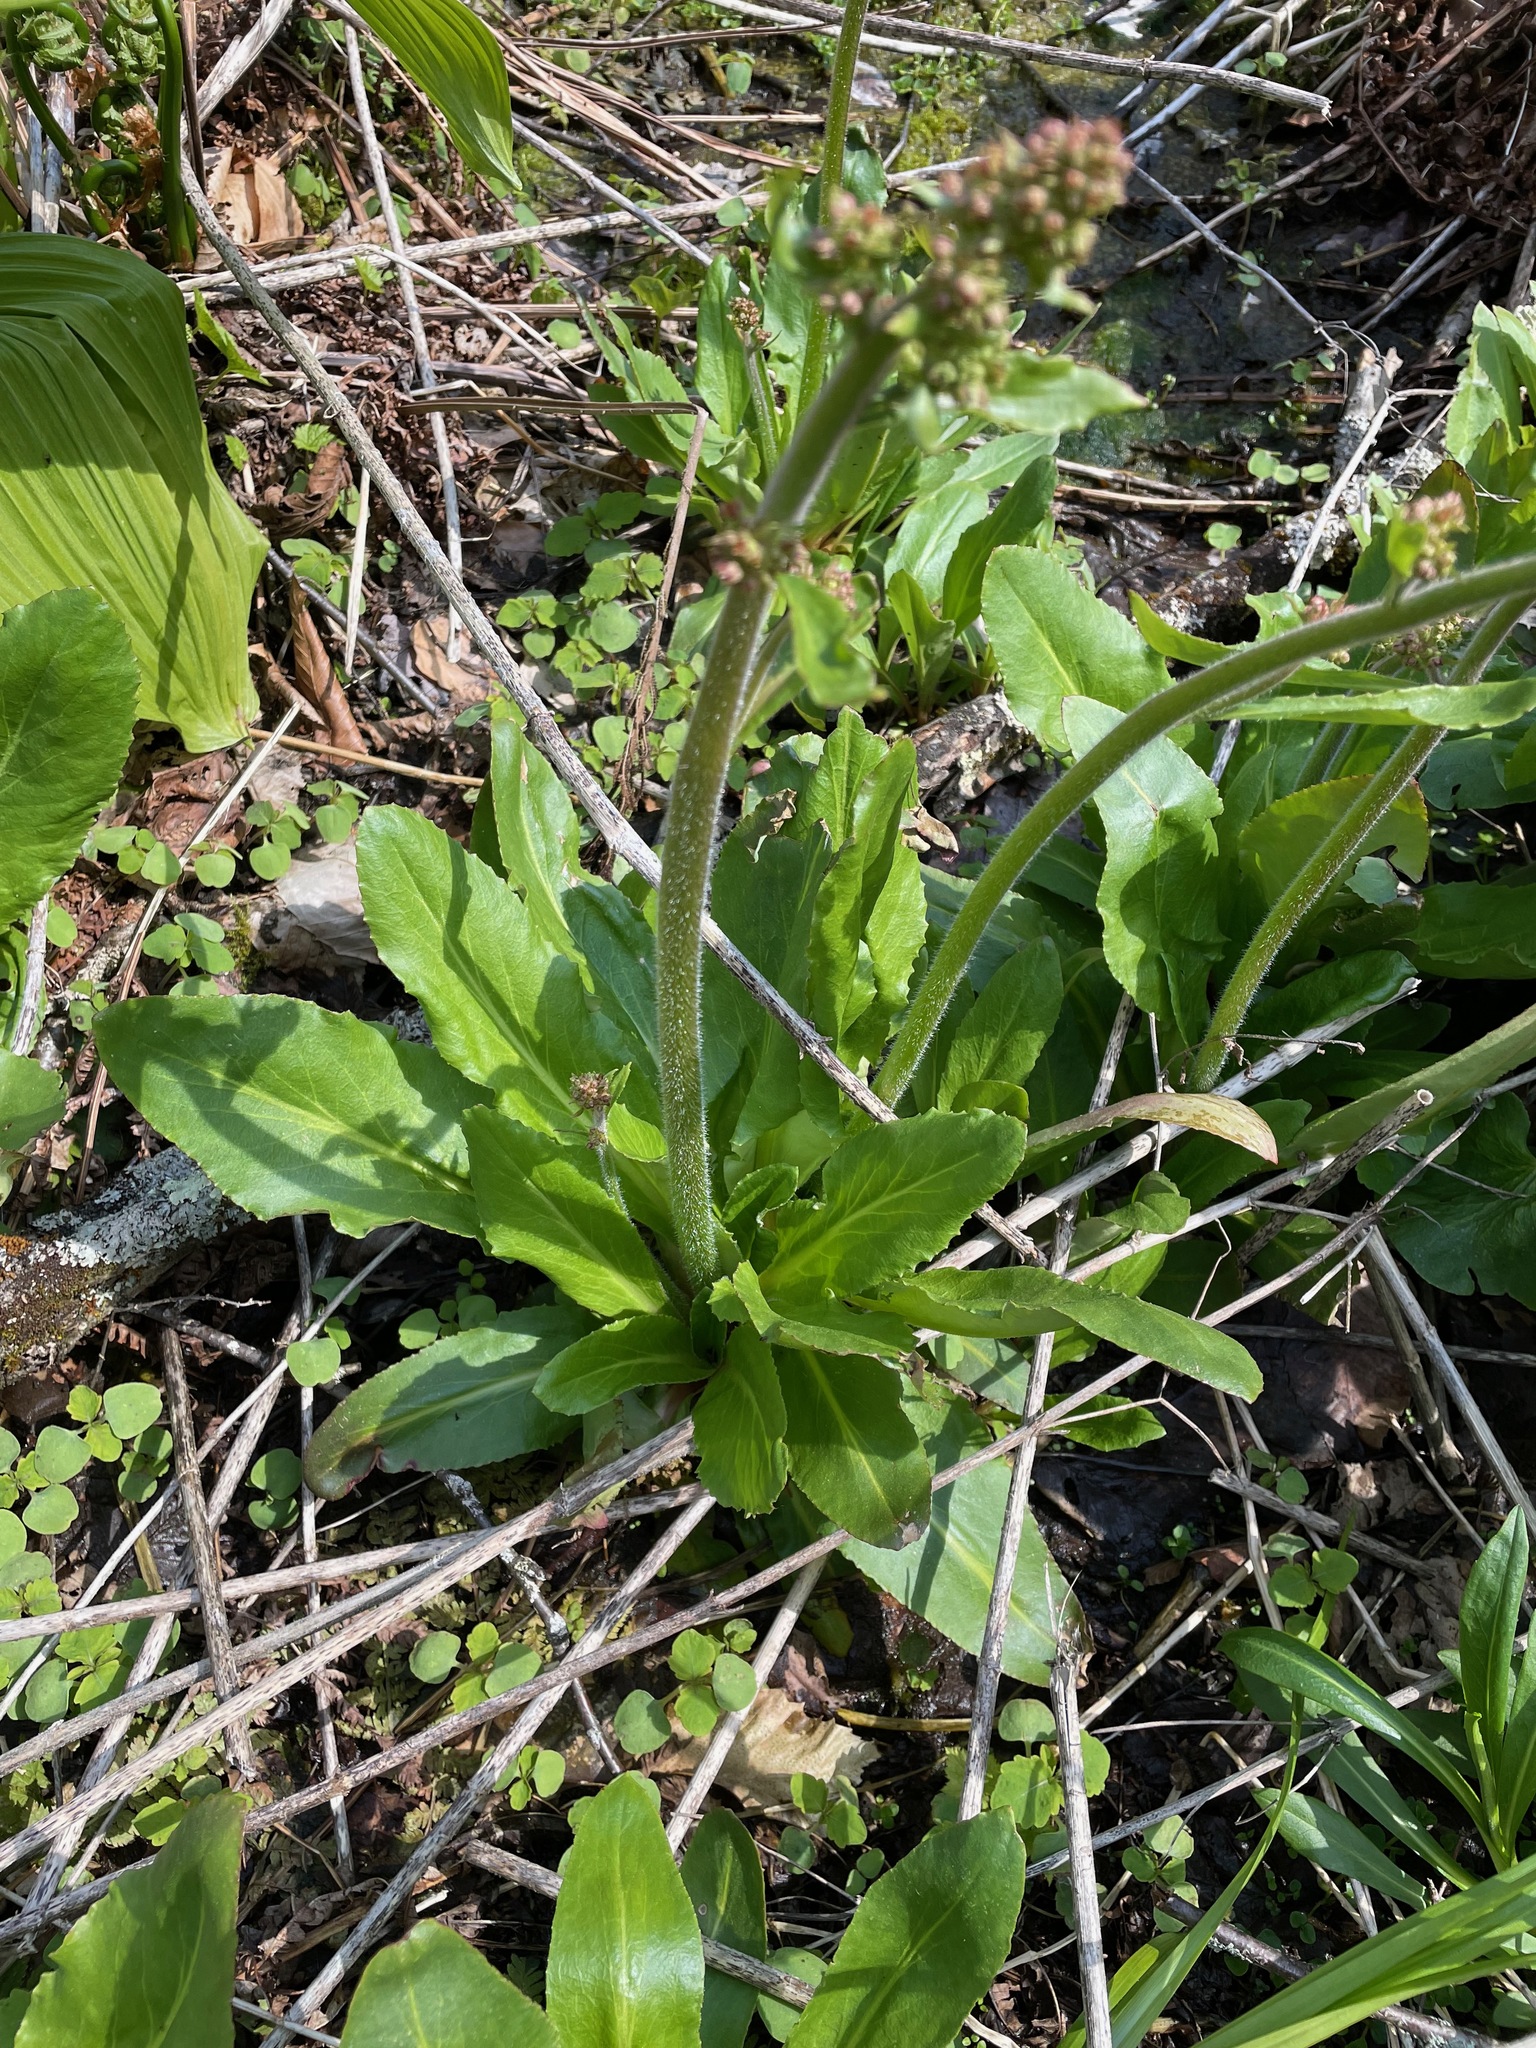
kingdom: Plantae
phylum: Tracheophyta
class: Magnoliopsida
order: Saxifragales
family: Saxifragaceae
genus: Micranthes
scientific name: Micranthes pensylvanica
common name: Marsh saxifrage
